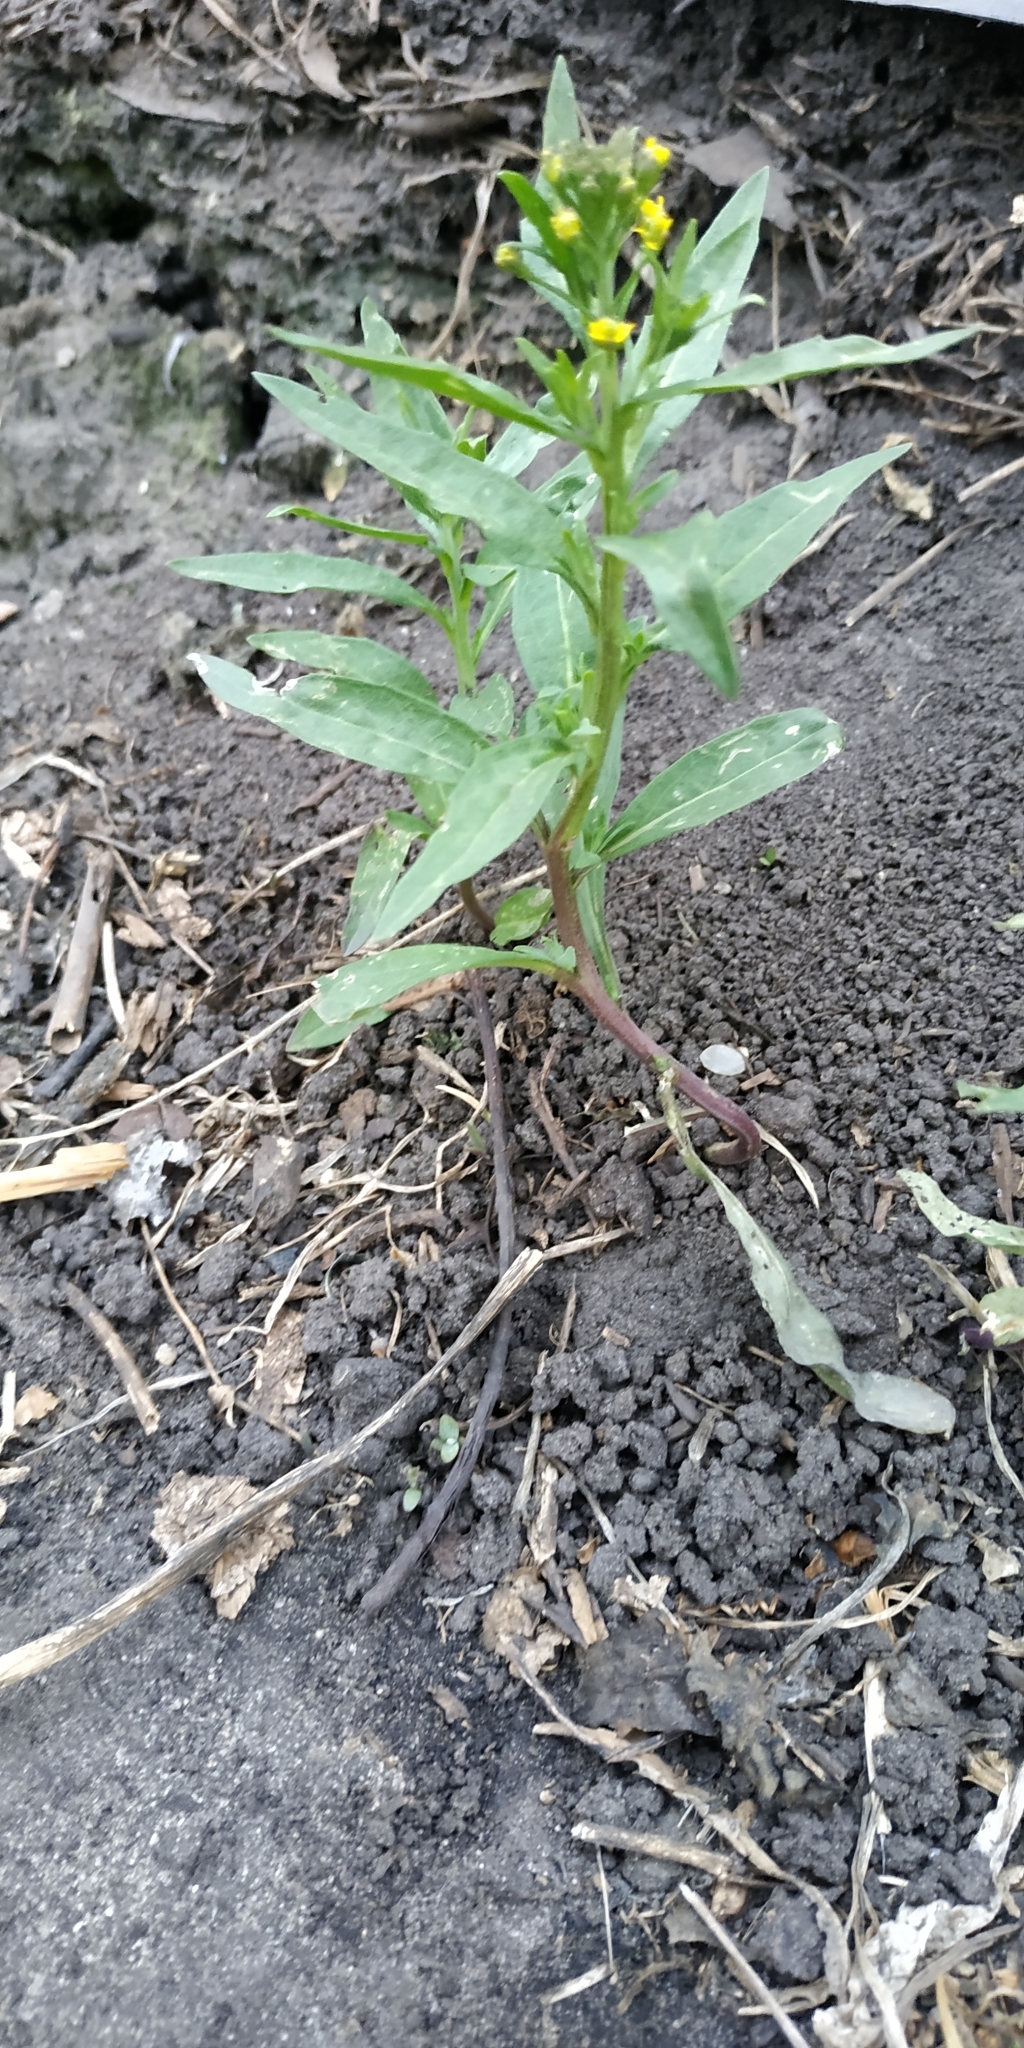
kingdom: Plantae
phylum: Tracheophyta
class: Magnoliopsida
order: Brassicales
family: Brassicaceae
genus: Erysimum
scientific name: Erysimum cheiranthoides
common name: Treacle mustard
